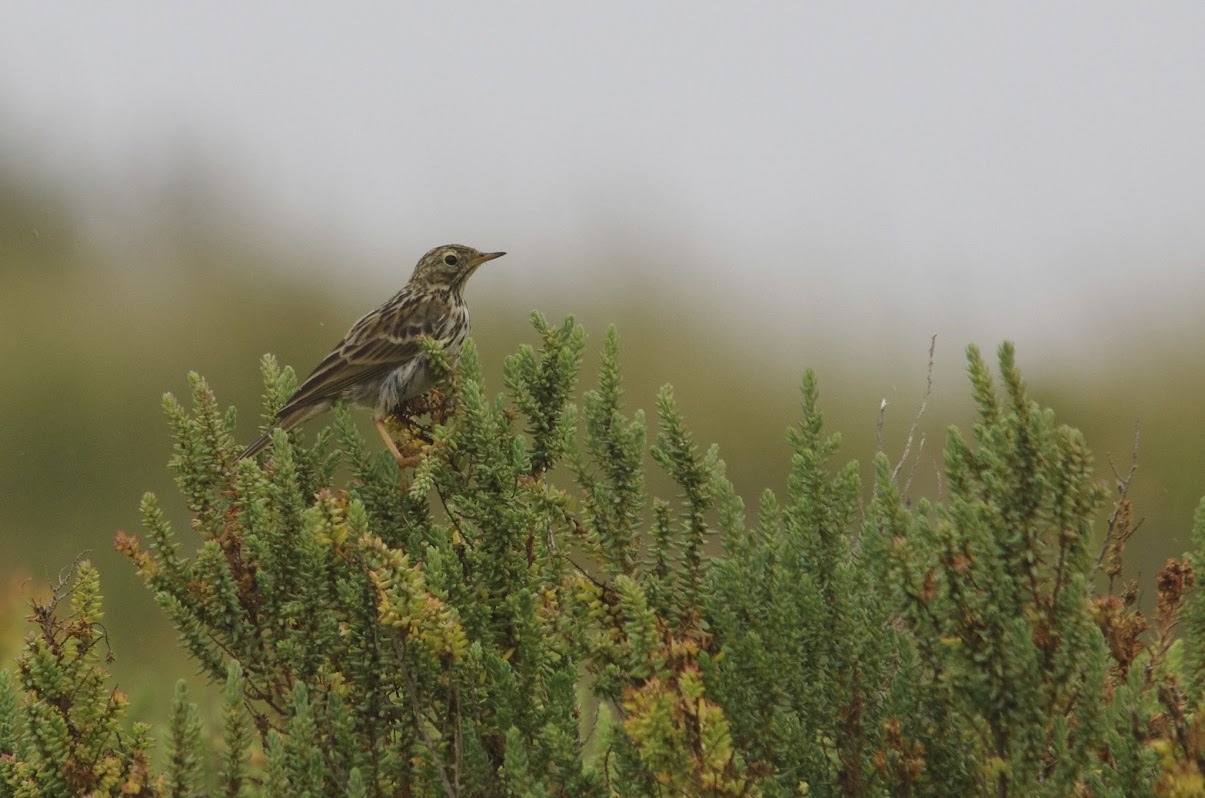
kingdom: Animalia
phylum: Chordata
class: Aves
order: Passeriformes
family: Motacillidae
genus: Anthus
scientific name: Anthus pratensis
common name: Meadow pipit
